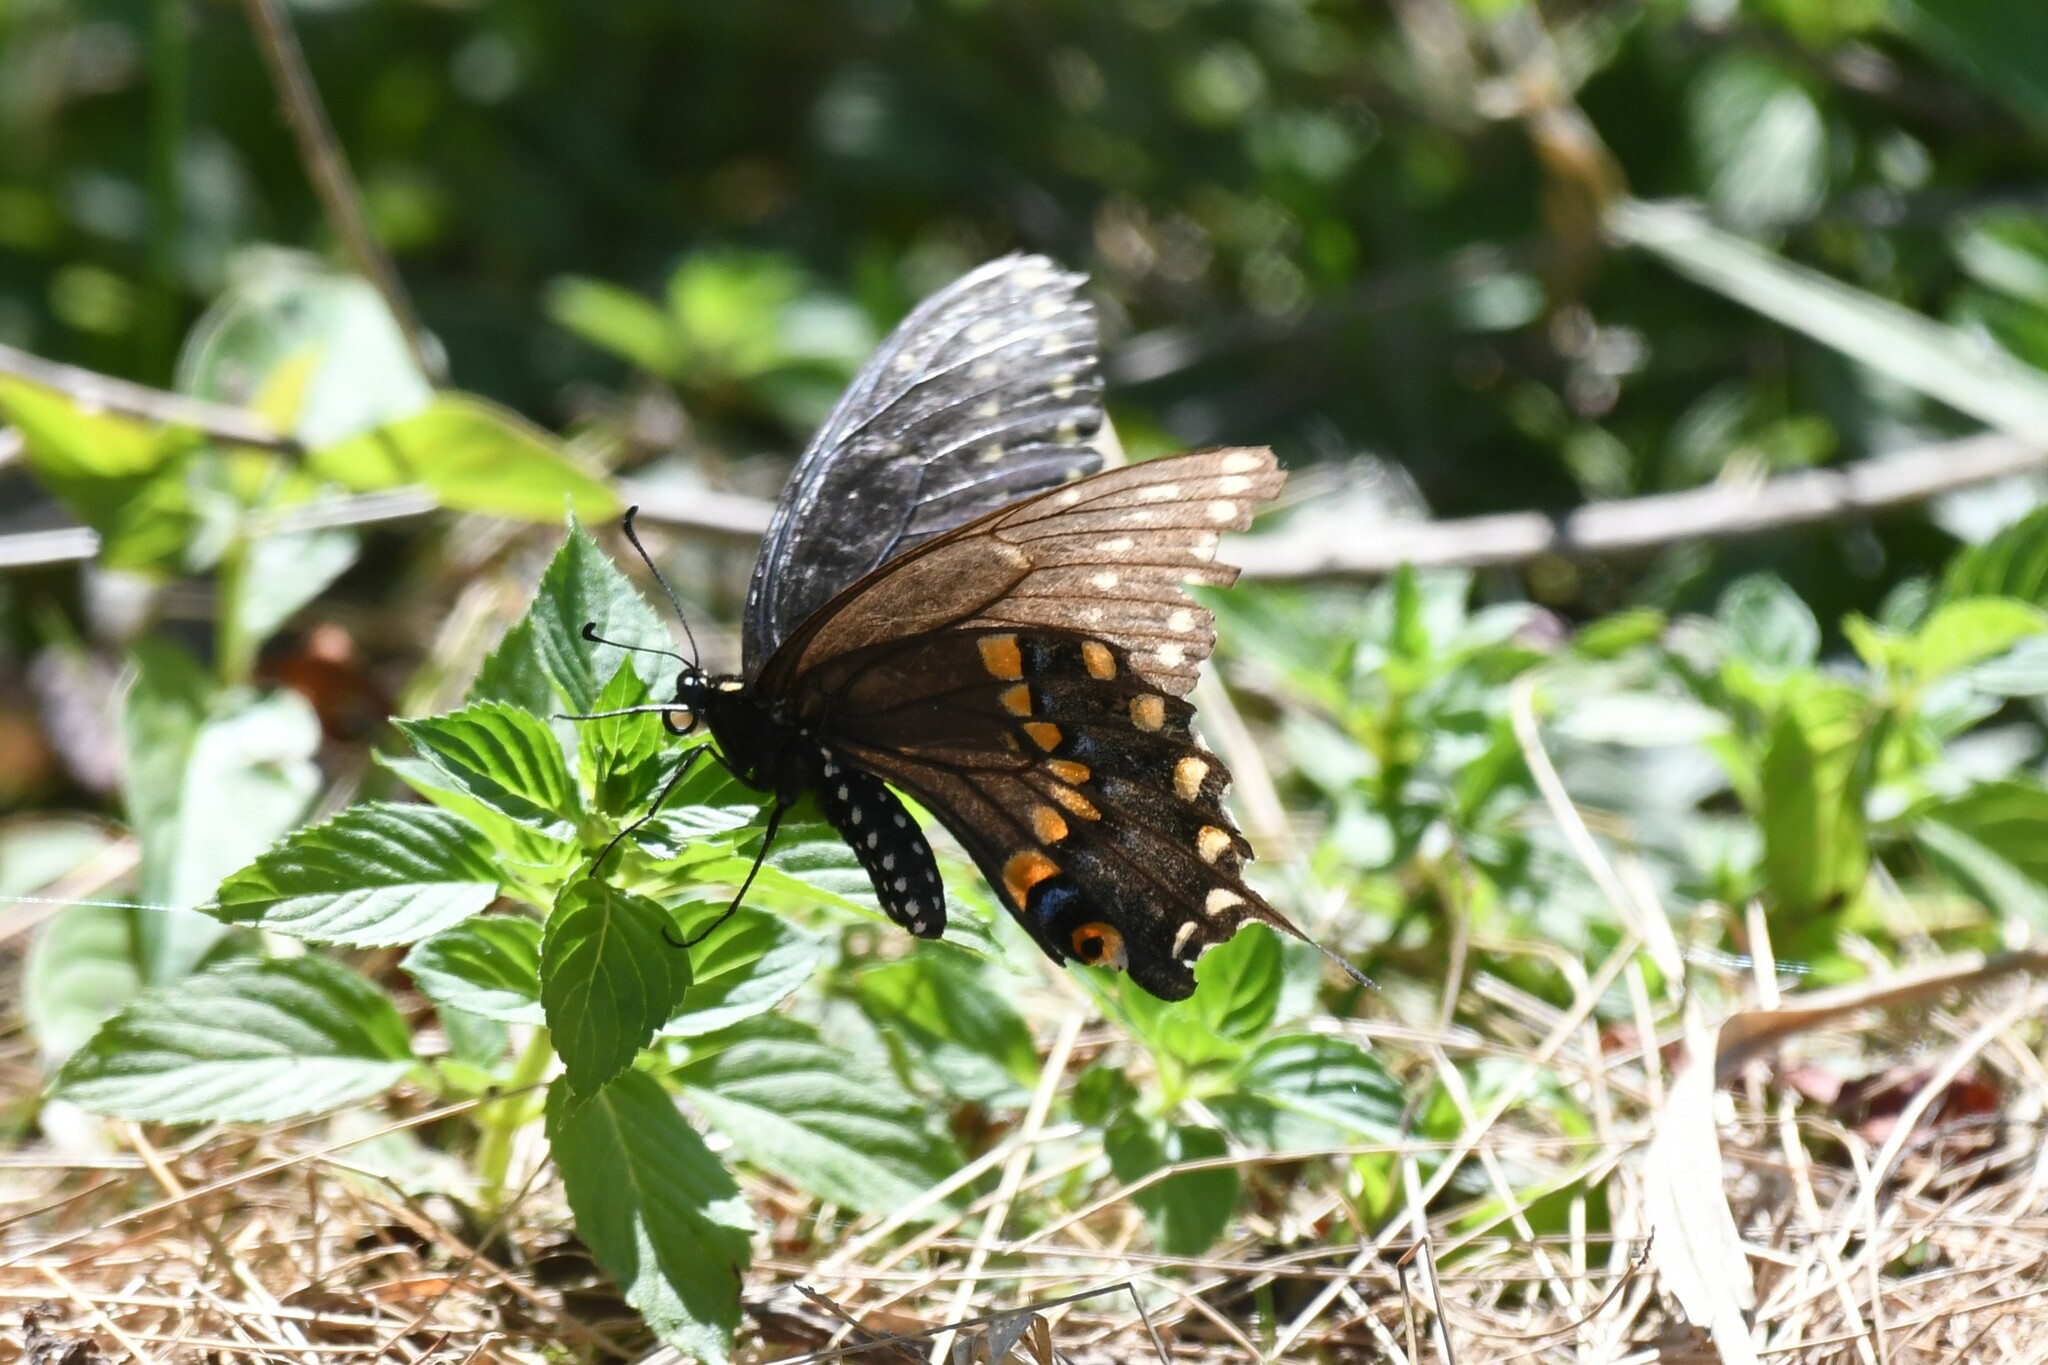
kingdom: Animalia
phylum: Arthropoda
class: Insecta
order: Lepidoptera
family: Papilionidae
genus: Papilio
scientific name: Papilio polyxenes
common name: Black swallowtail
